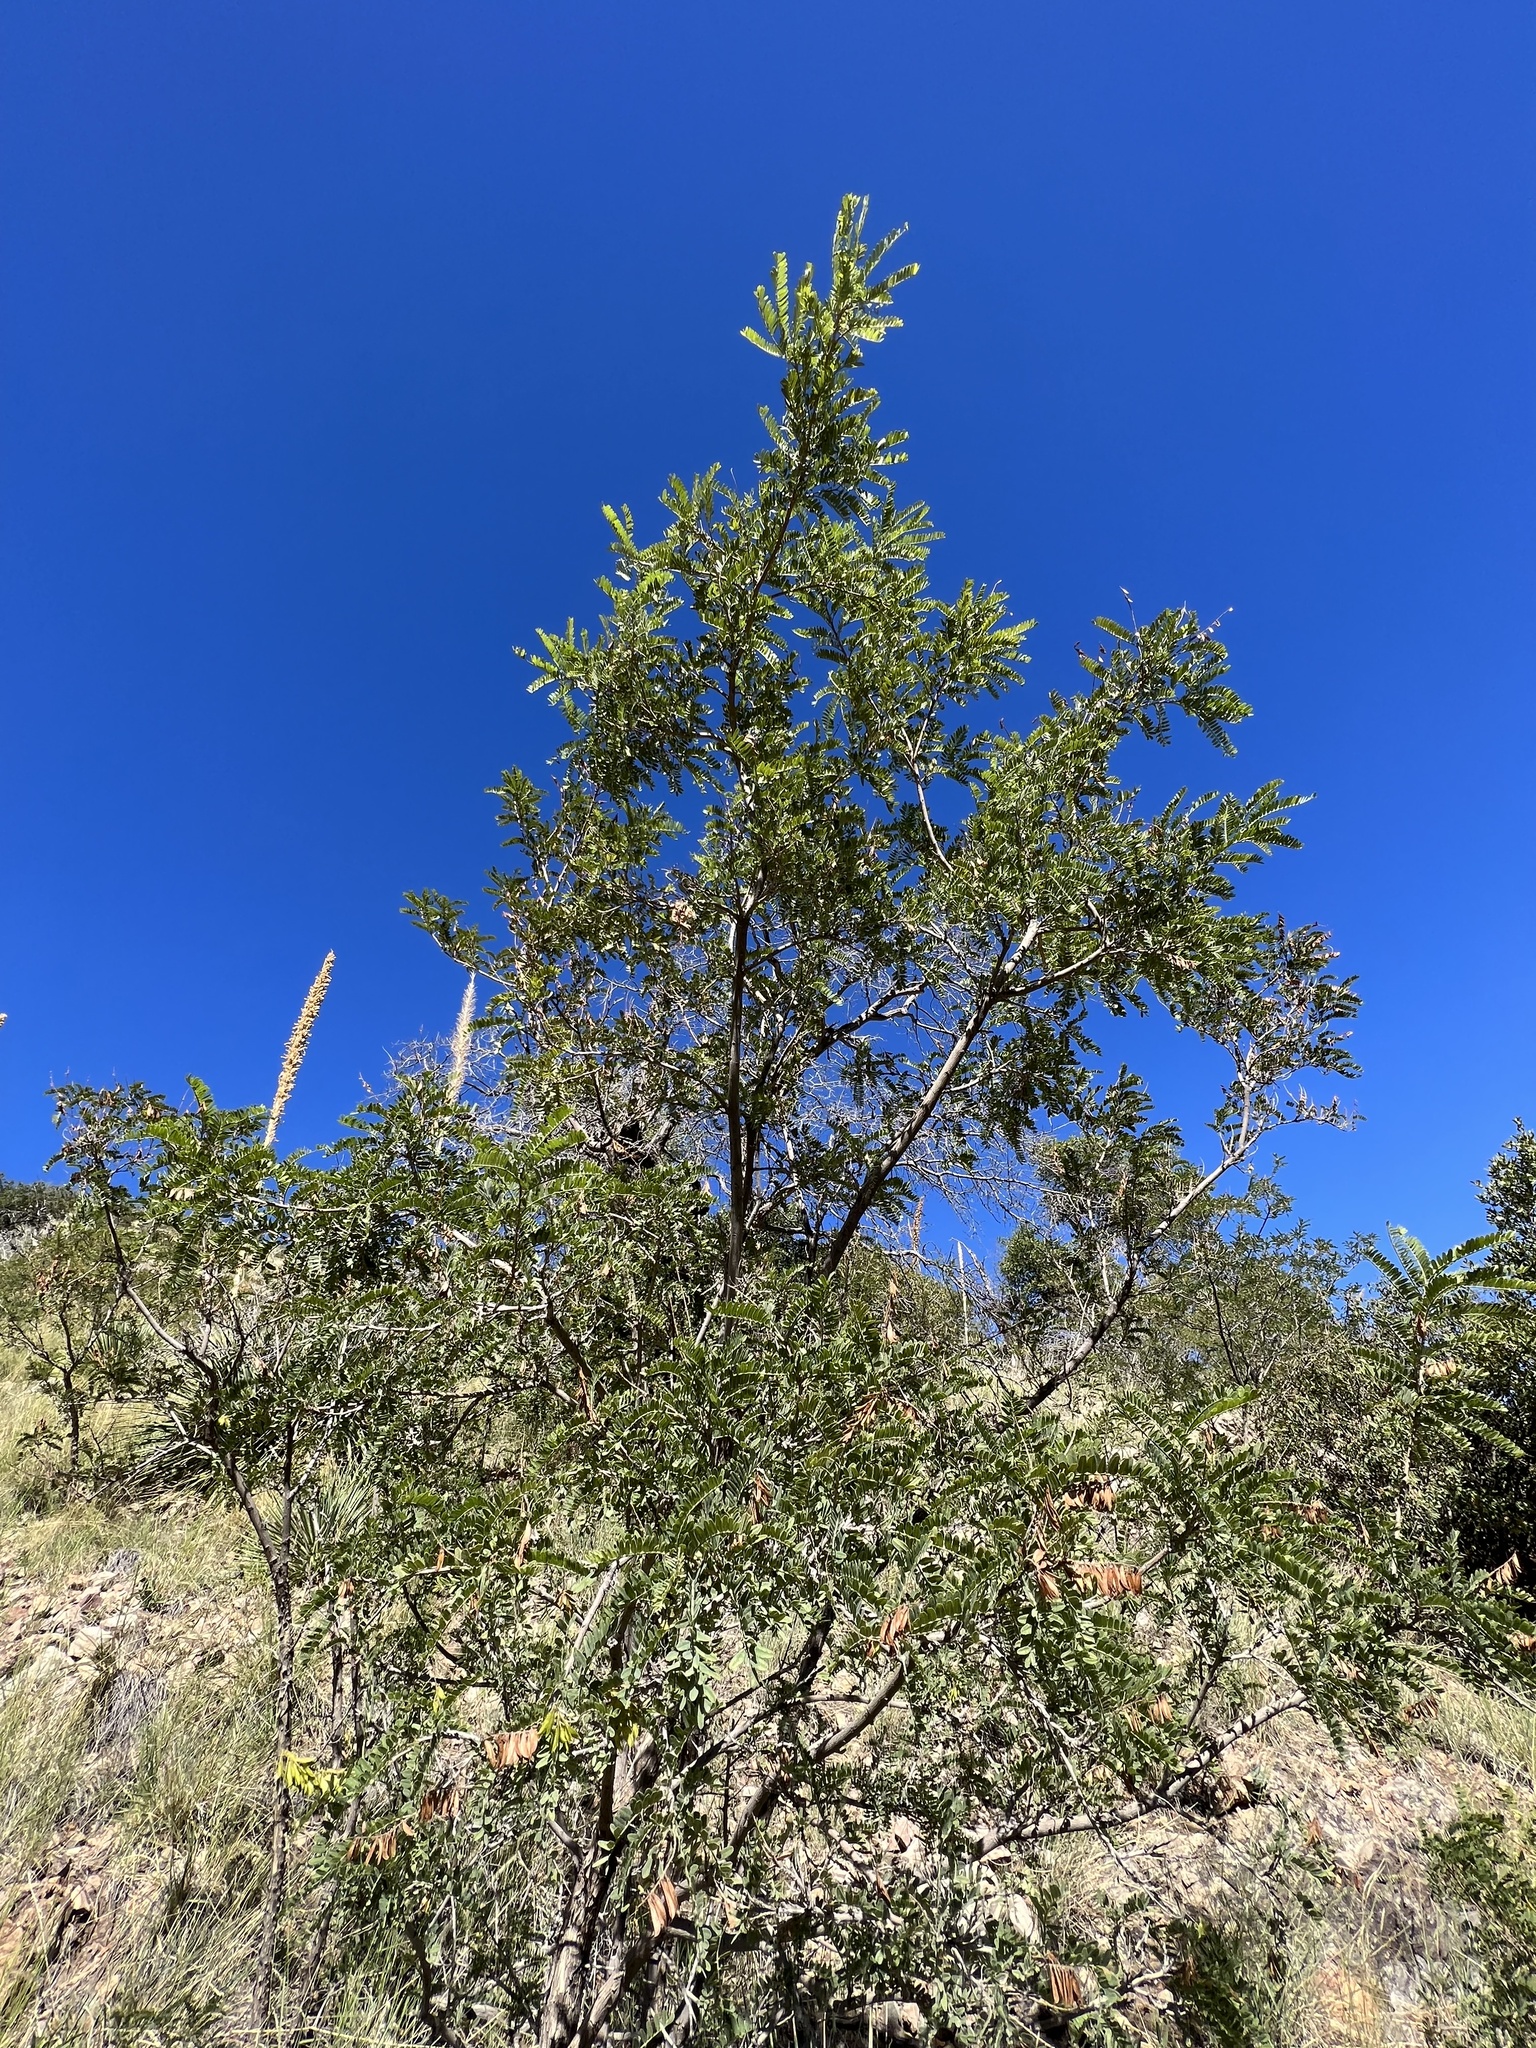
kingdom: Plantae
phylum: Tracheophyta
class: Magnoliopsida
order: Fabales
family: Fabaceae
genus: Eysenhardtia
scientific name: Eysenhardtia orthocarpa
